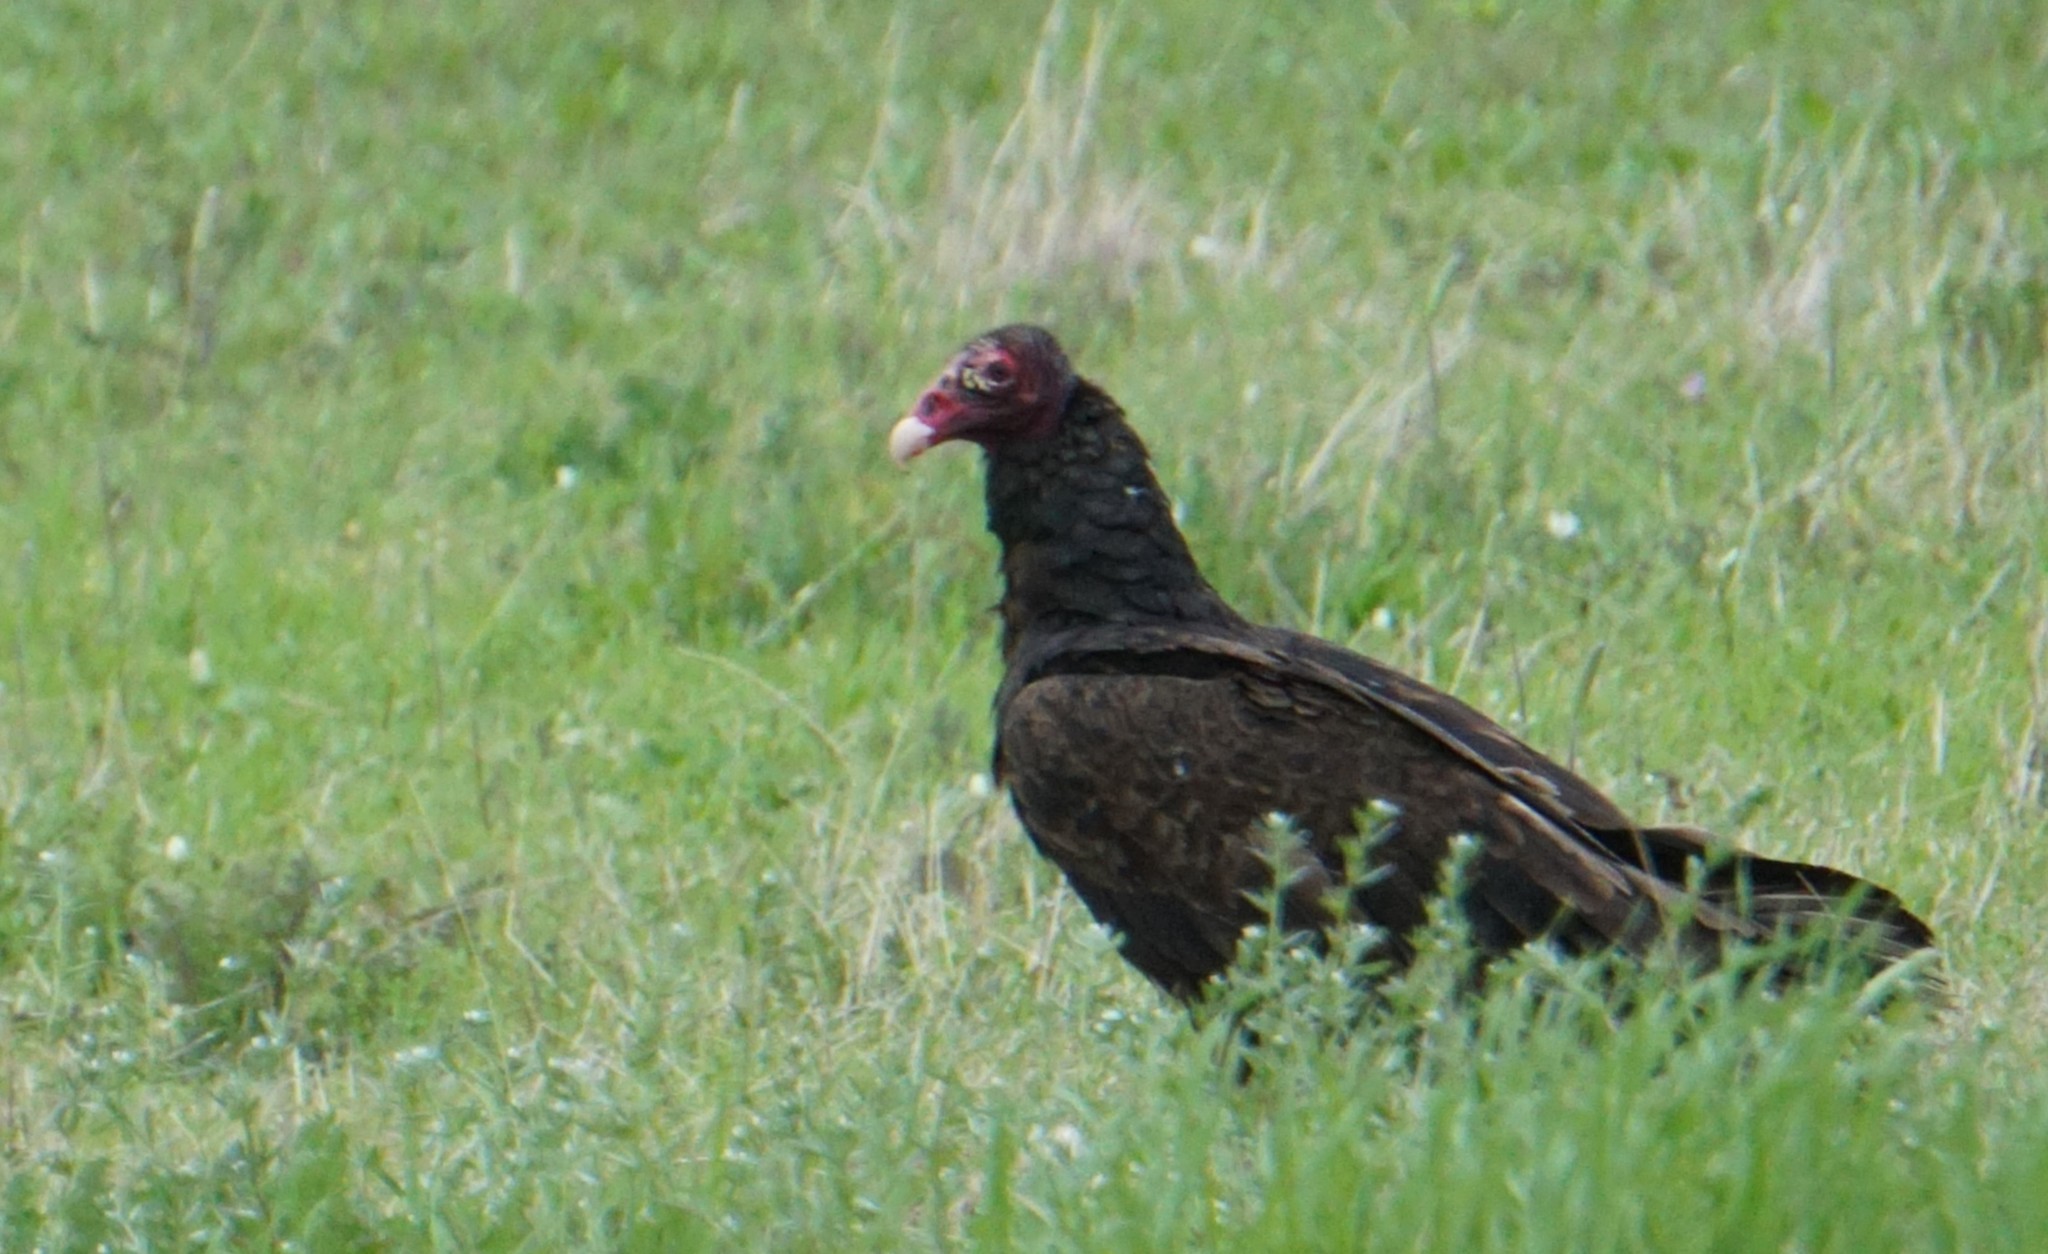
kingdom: Animalia
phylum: Chordata
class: Aves
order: Accipitriformes
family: Cathartidae
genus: Cathartes
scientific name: Cathartes aura
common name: Turkey vulture
